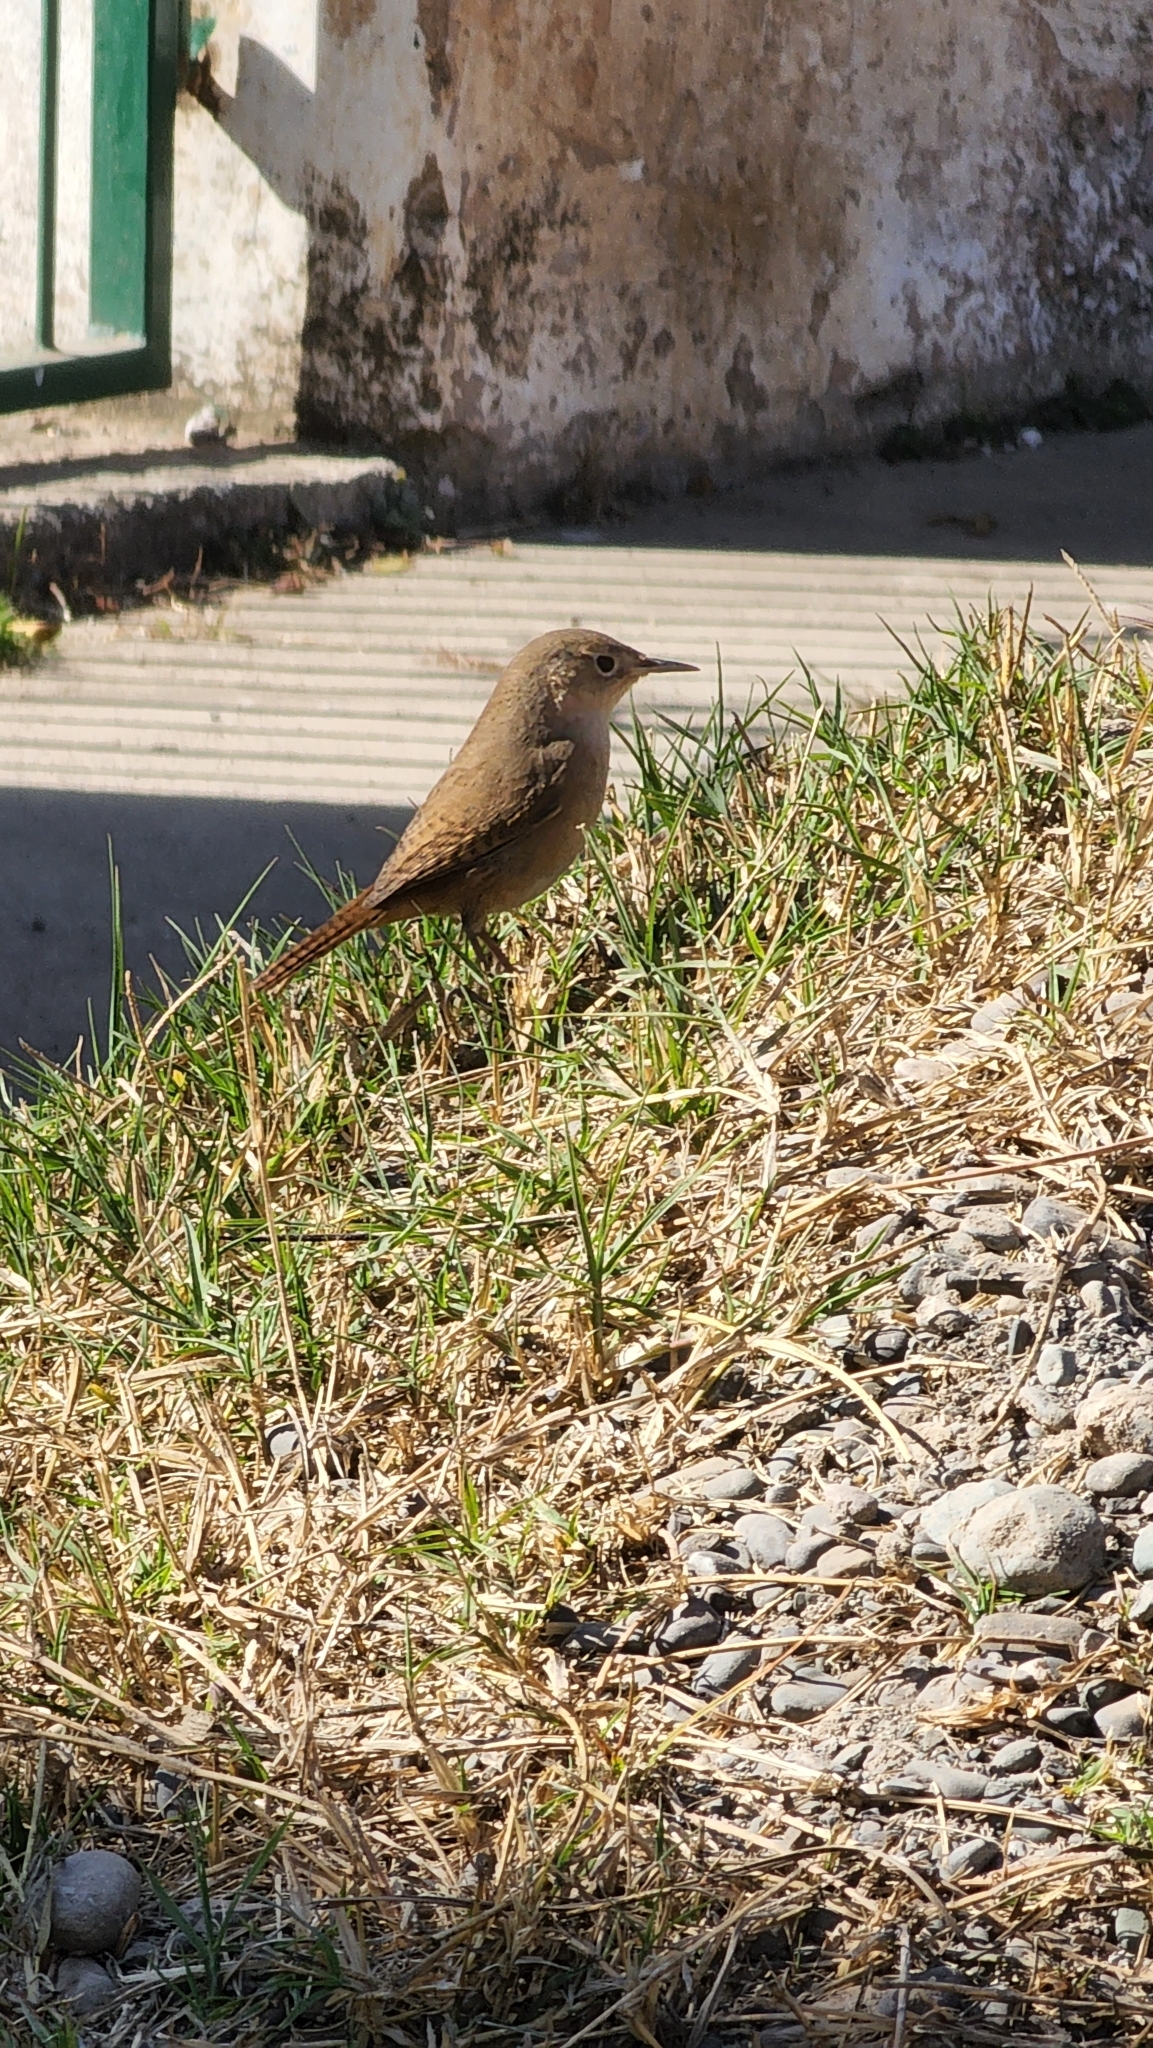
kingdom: Animalia
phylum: Chordata
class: Aves
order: Passeriformes
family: Troglodytidae
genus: Troglodytes
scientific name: Troglodytes aedon
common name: House wren
